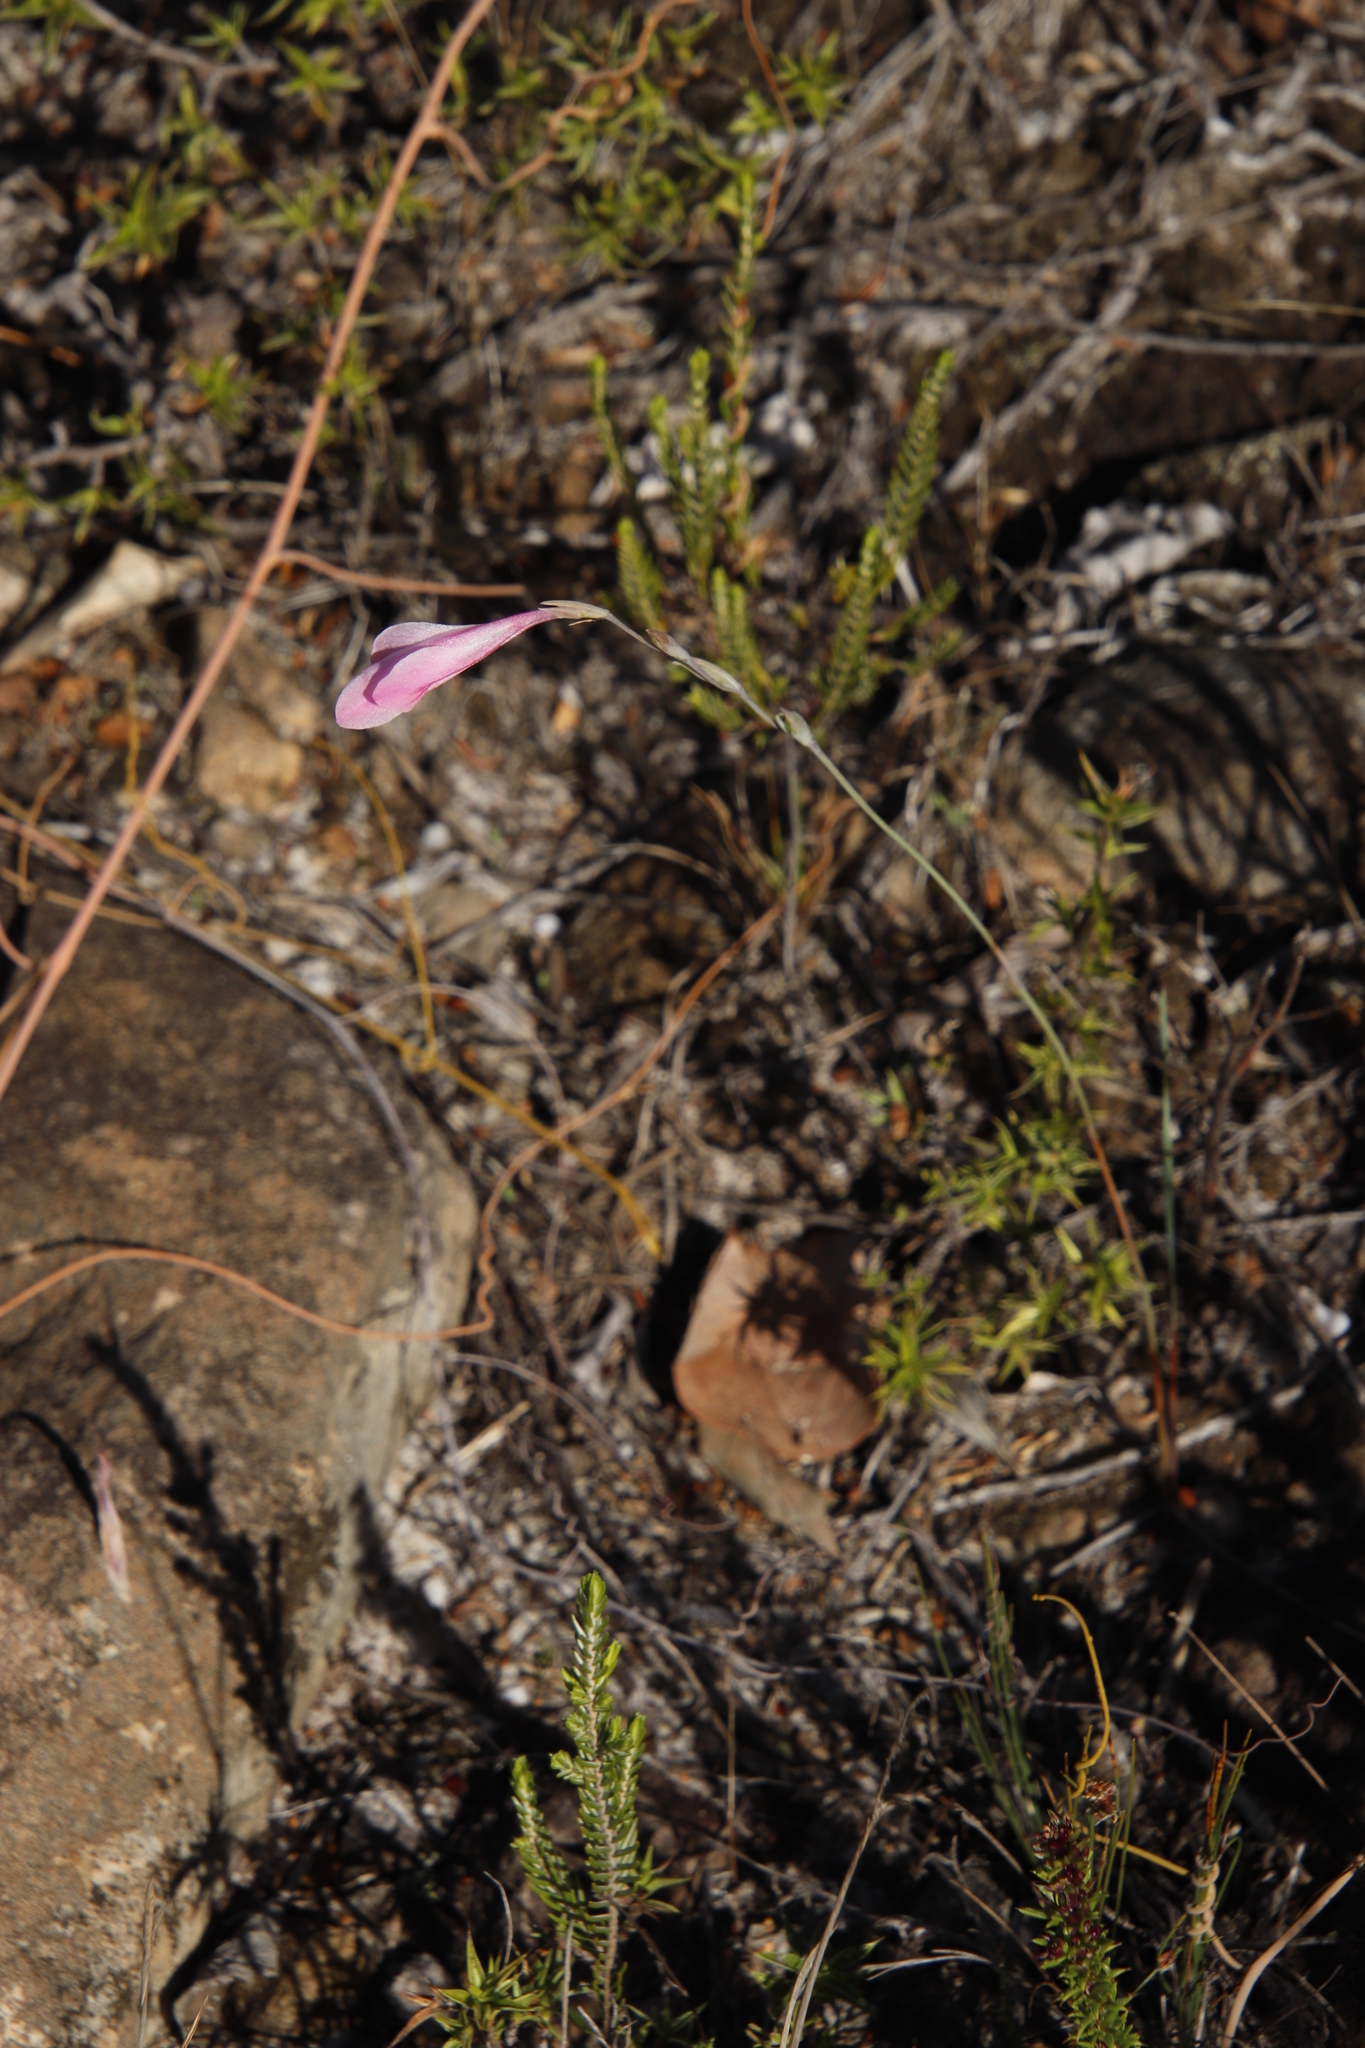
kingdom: Plantae
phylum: Tracheophyta
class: Liliopsida
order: Asparagales
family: Iridaceae
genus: Gladiolus
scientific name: Gladiolus brevifolius
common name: March pypie
